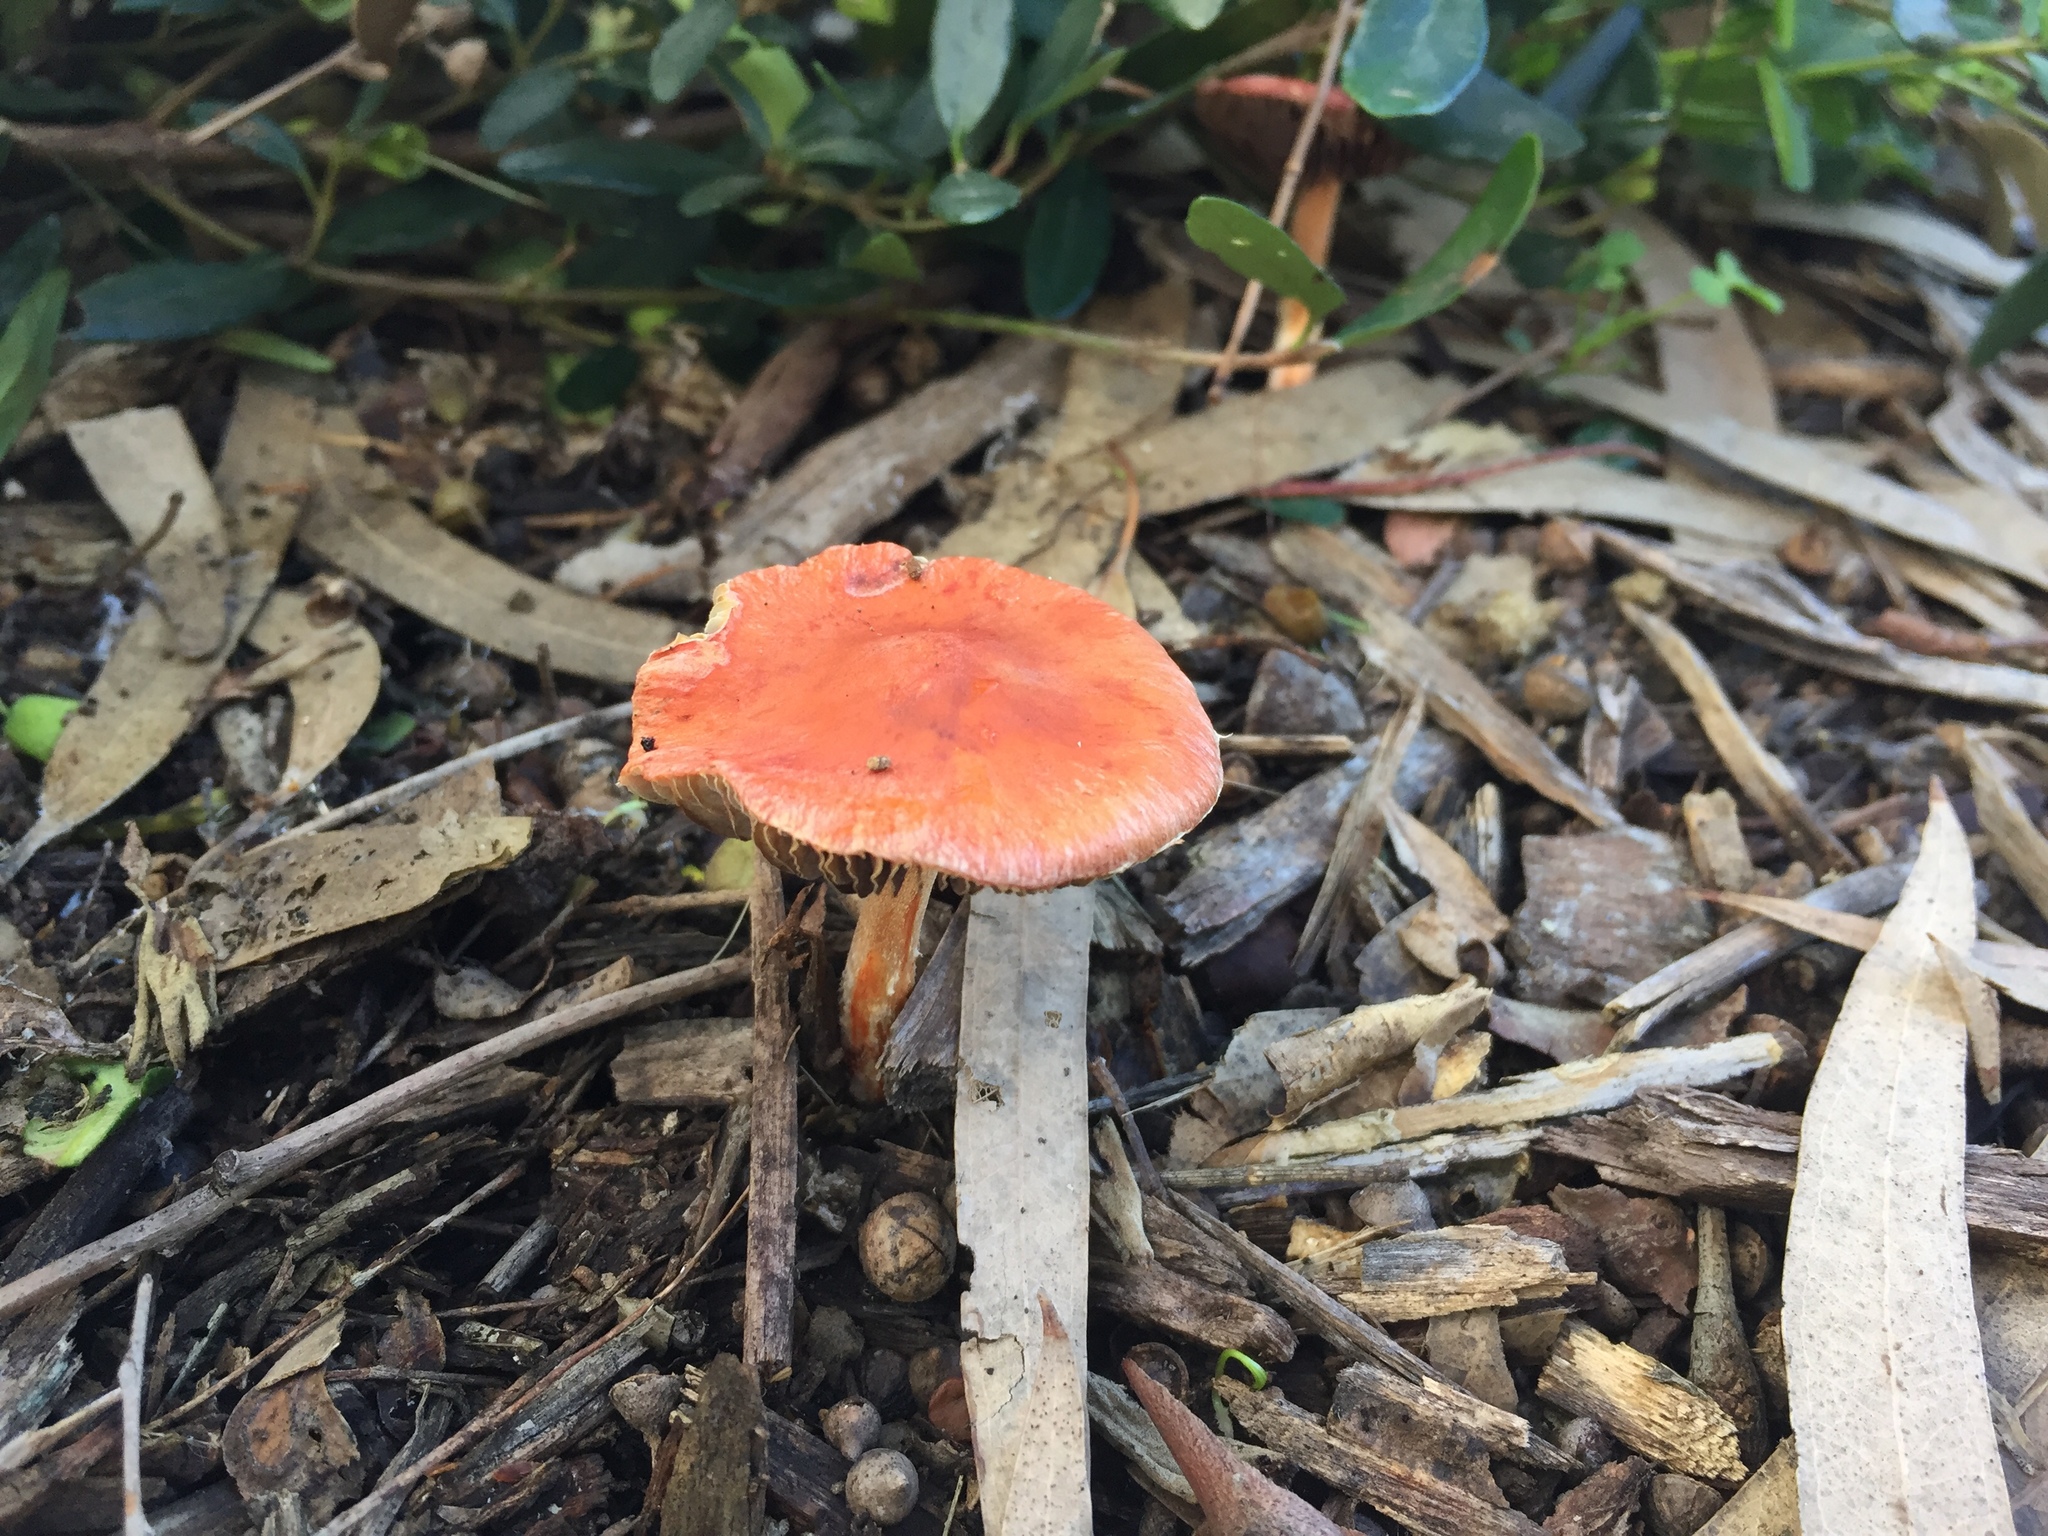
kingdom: Fungi
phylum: Basidiomycota
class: Agaricomycetes
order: Agaricales
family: Strophariaceae
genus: Leratiomyces
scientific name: Leratiomyces ceres
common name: Redlead roundhead
